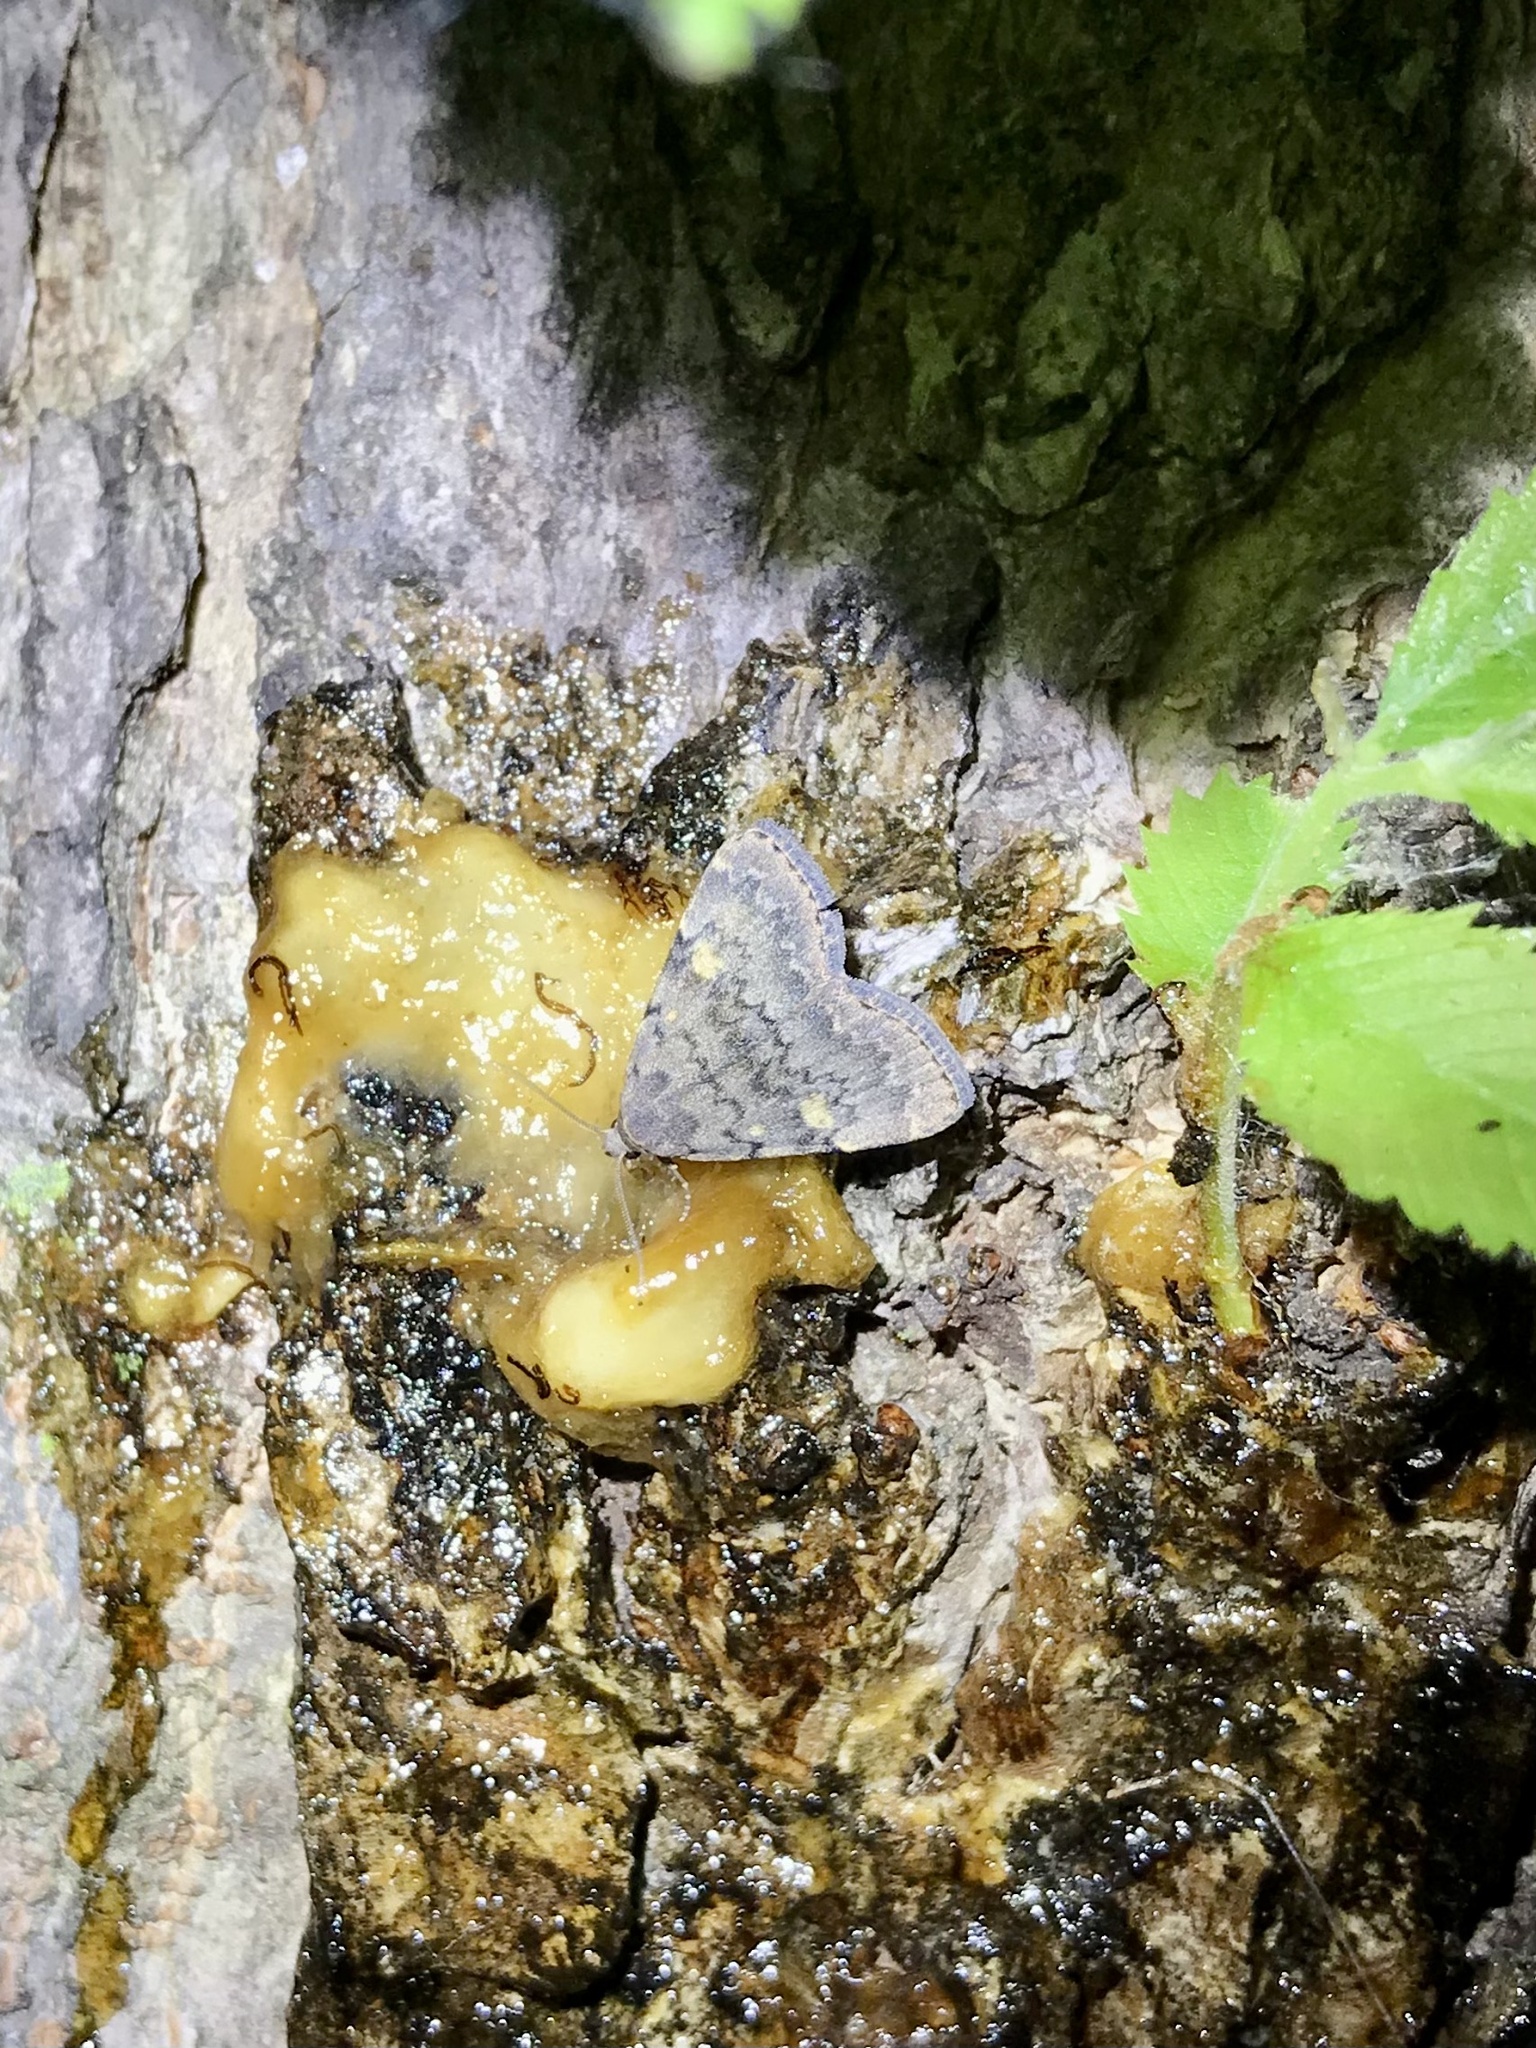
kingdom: Animalia
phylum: Arthropoda
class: Insecta
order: Lepidoptera
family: Erebidae
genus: Idia
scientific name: Idia aemula
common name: Common idia moth
